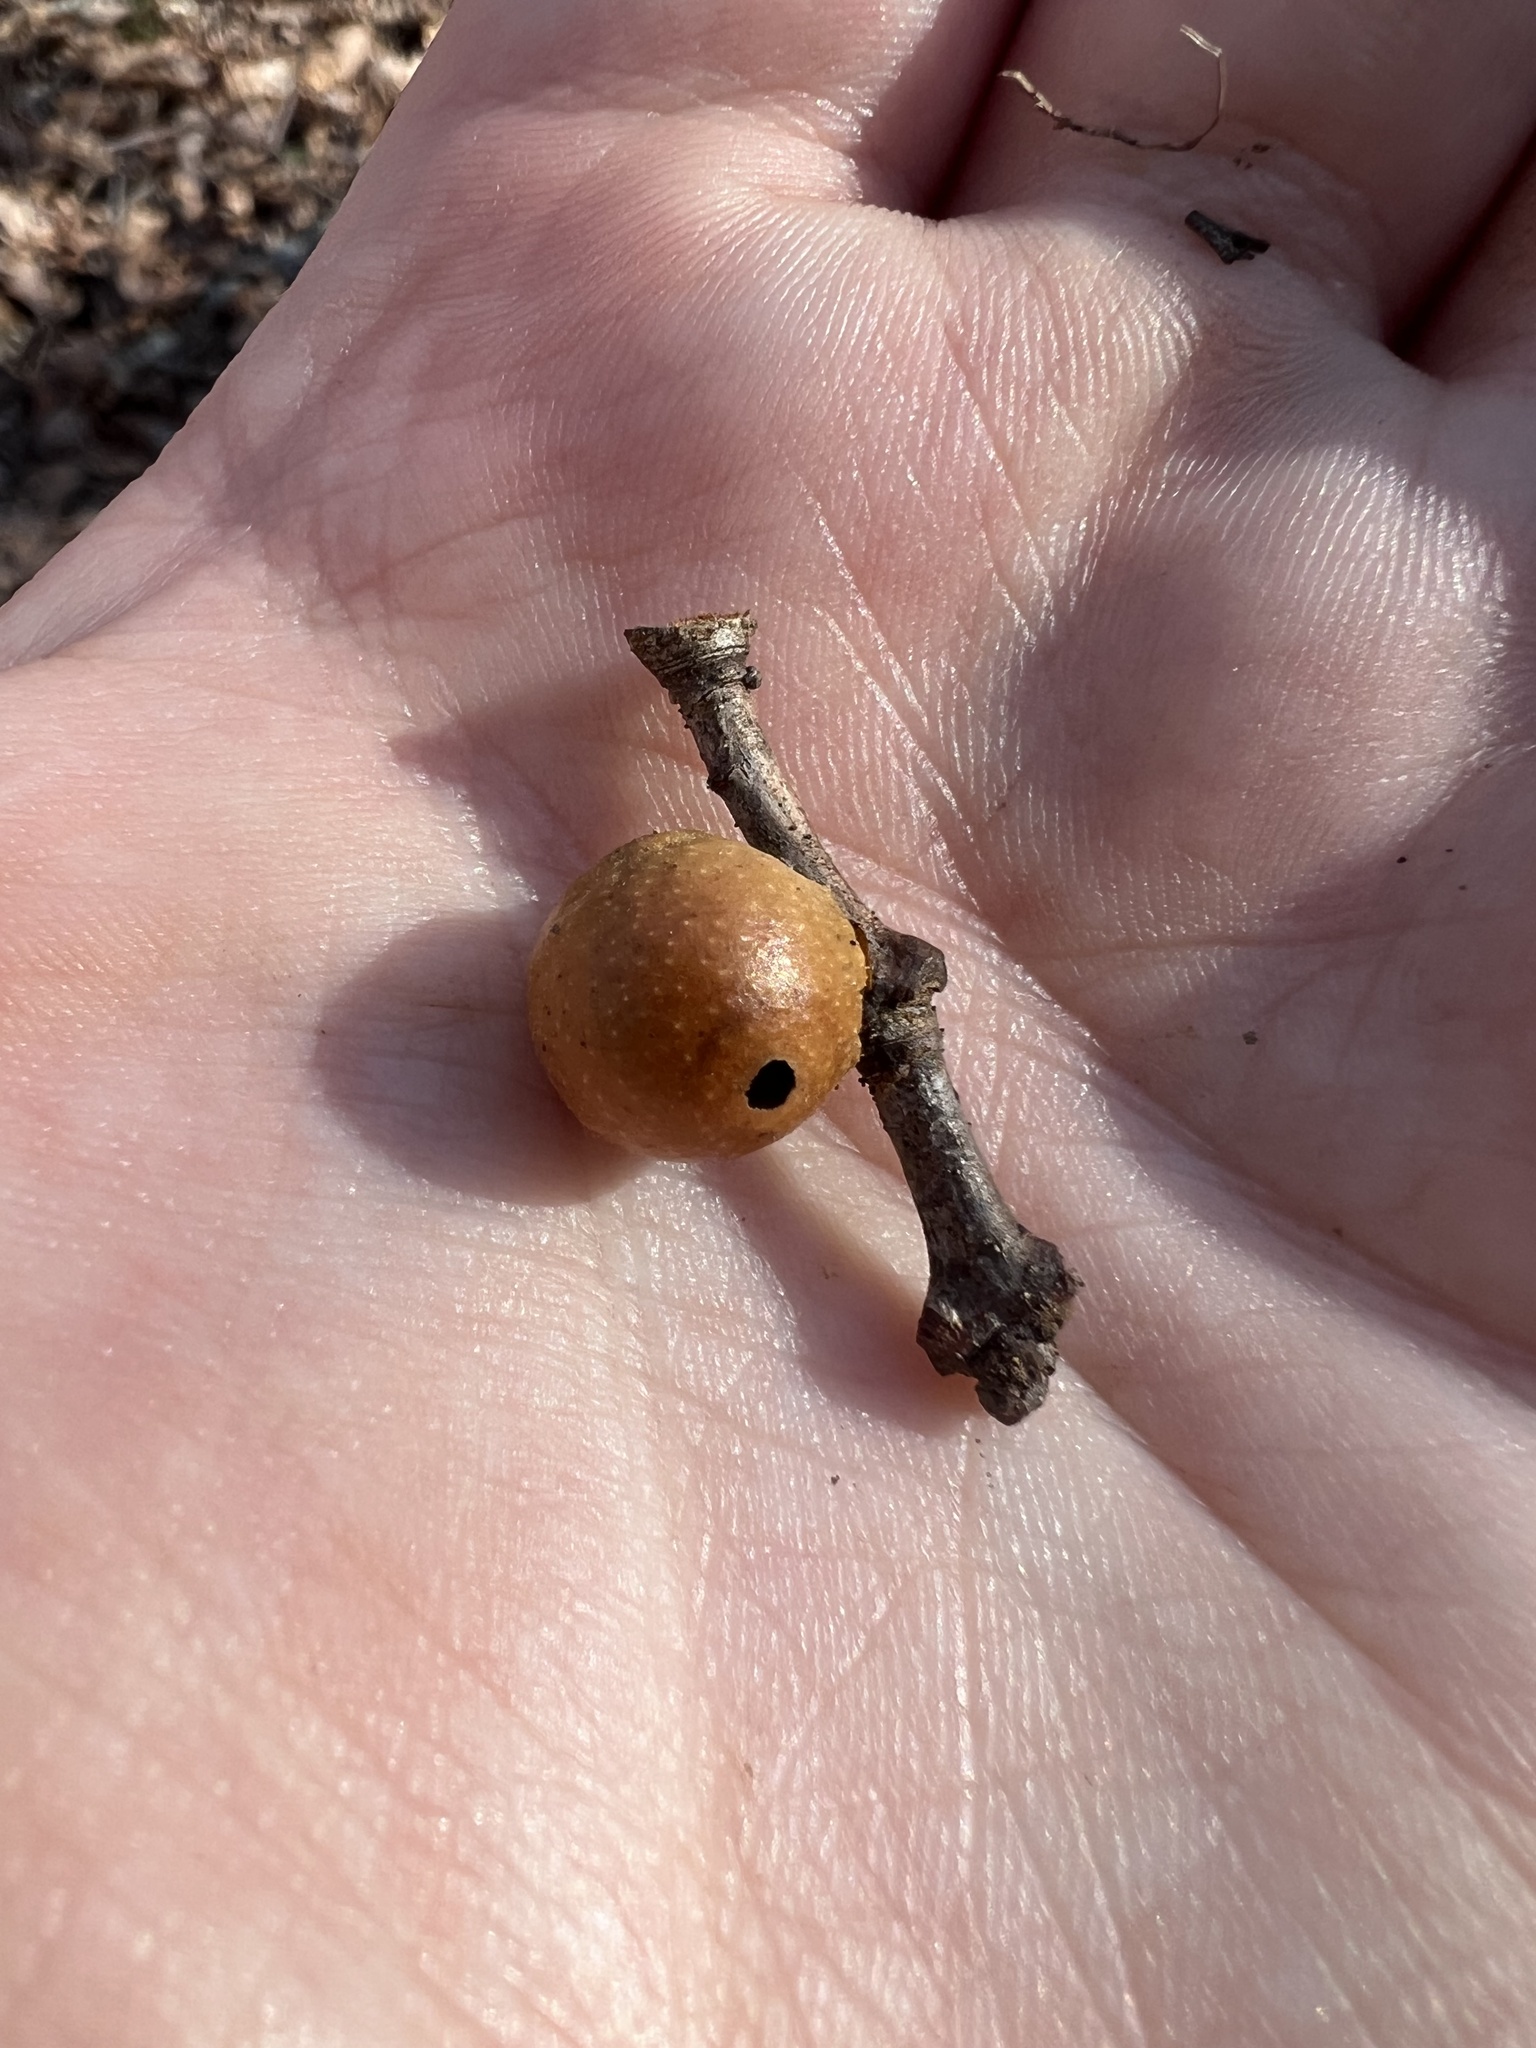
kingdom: Animalia
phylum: Arthropoda
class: Insecta
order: Hymenoptera
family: Cynipidae
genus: Disholcaspis
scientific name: Disholcaspis quercusglobulus
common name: Round bullet gall wasp
